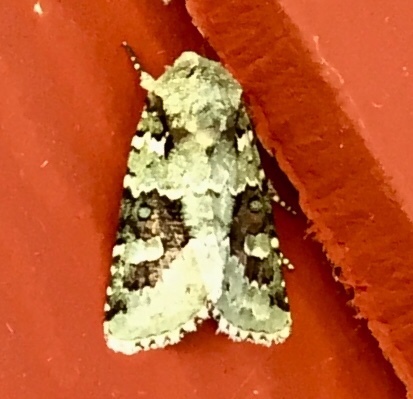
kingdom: Animalia
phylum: Arthropoda
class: Insecta
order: Lepidoptera
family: Noctuidae
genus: Lacinipolia
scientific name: Lacinipolia laudabilis
